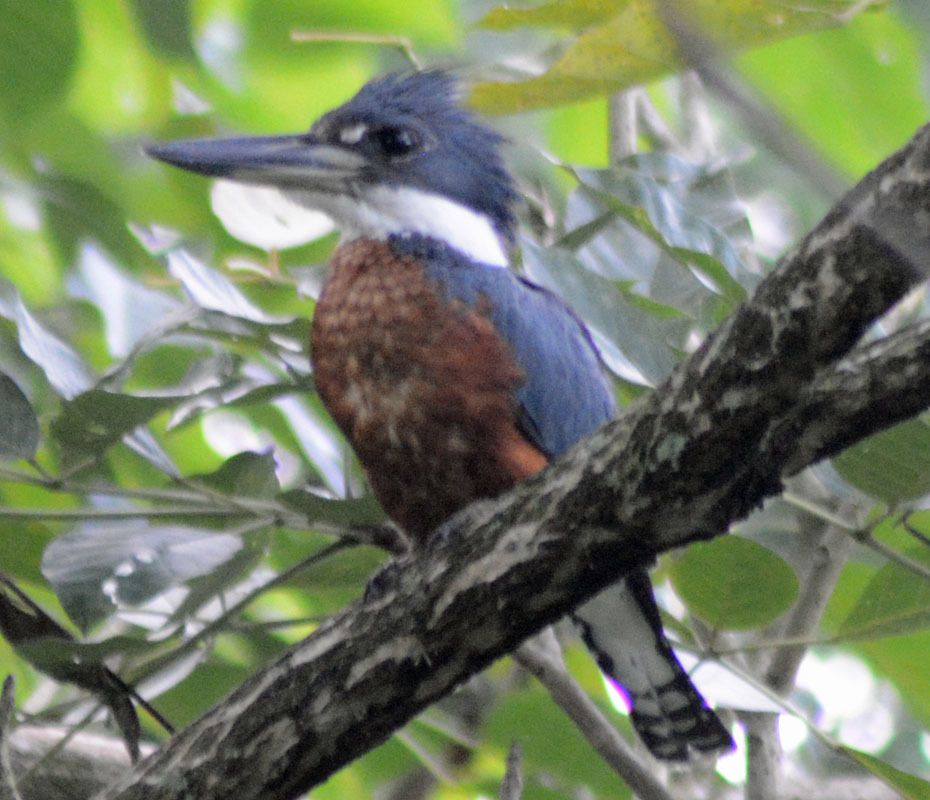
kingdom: Animalia
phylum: Chordata
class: Aves
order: Coraciiformes
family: Alcedinidae
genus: Megaceryle
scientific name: Megaceryle torquata
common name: Ringed kingfisher
